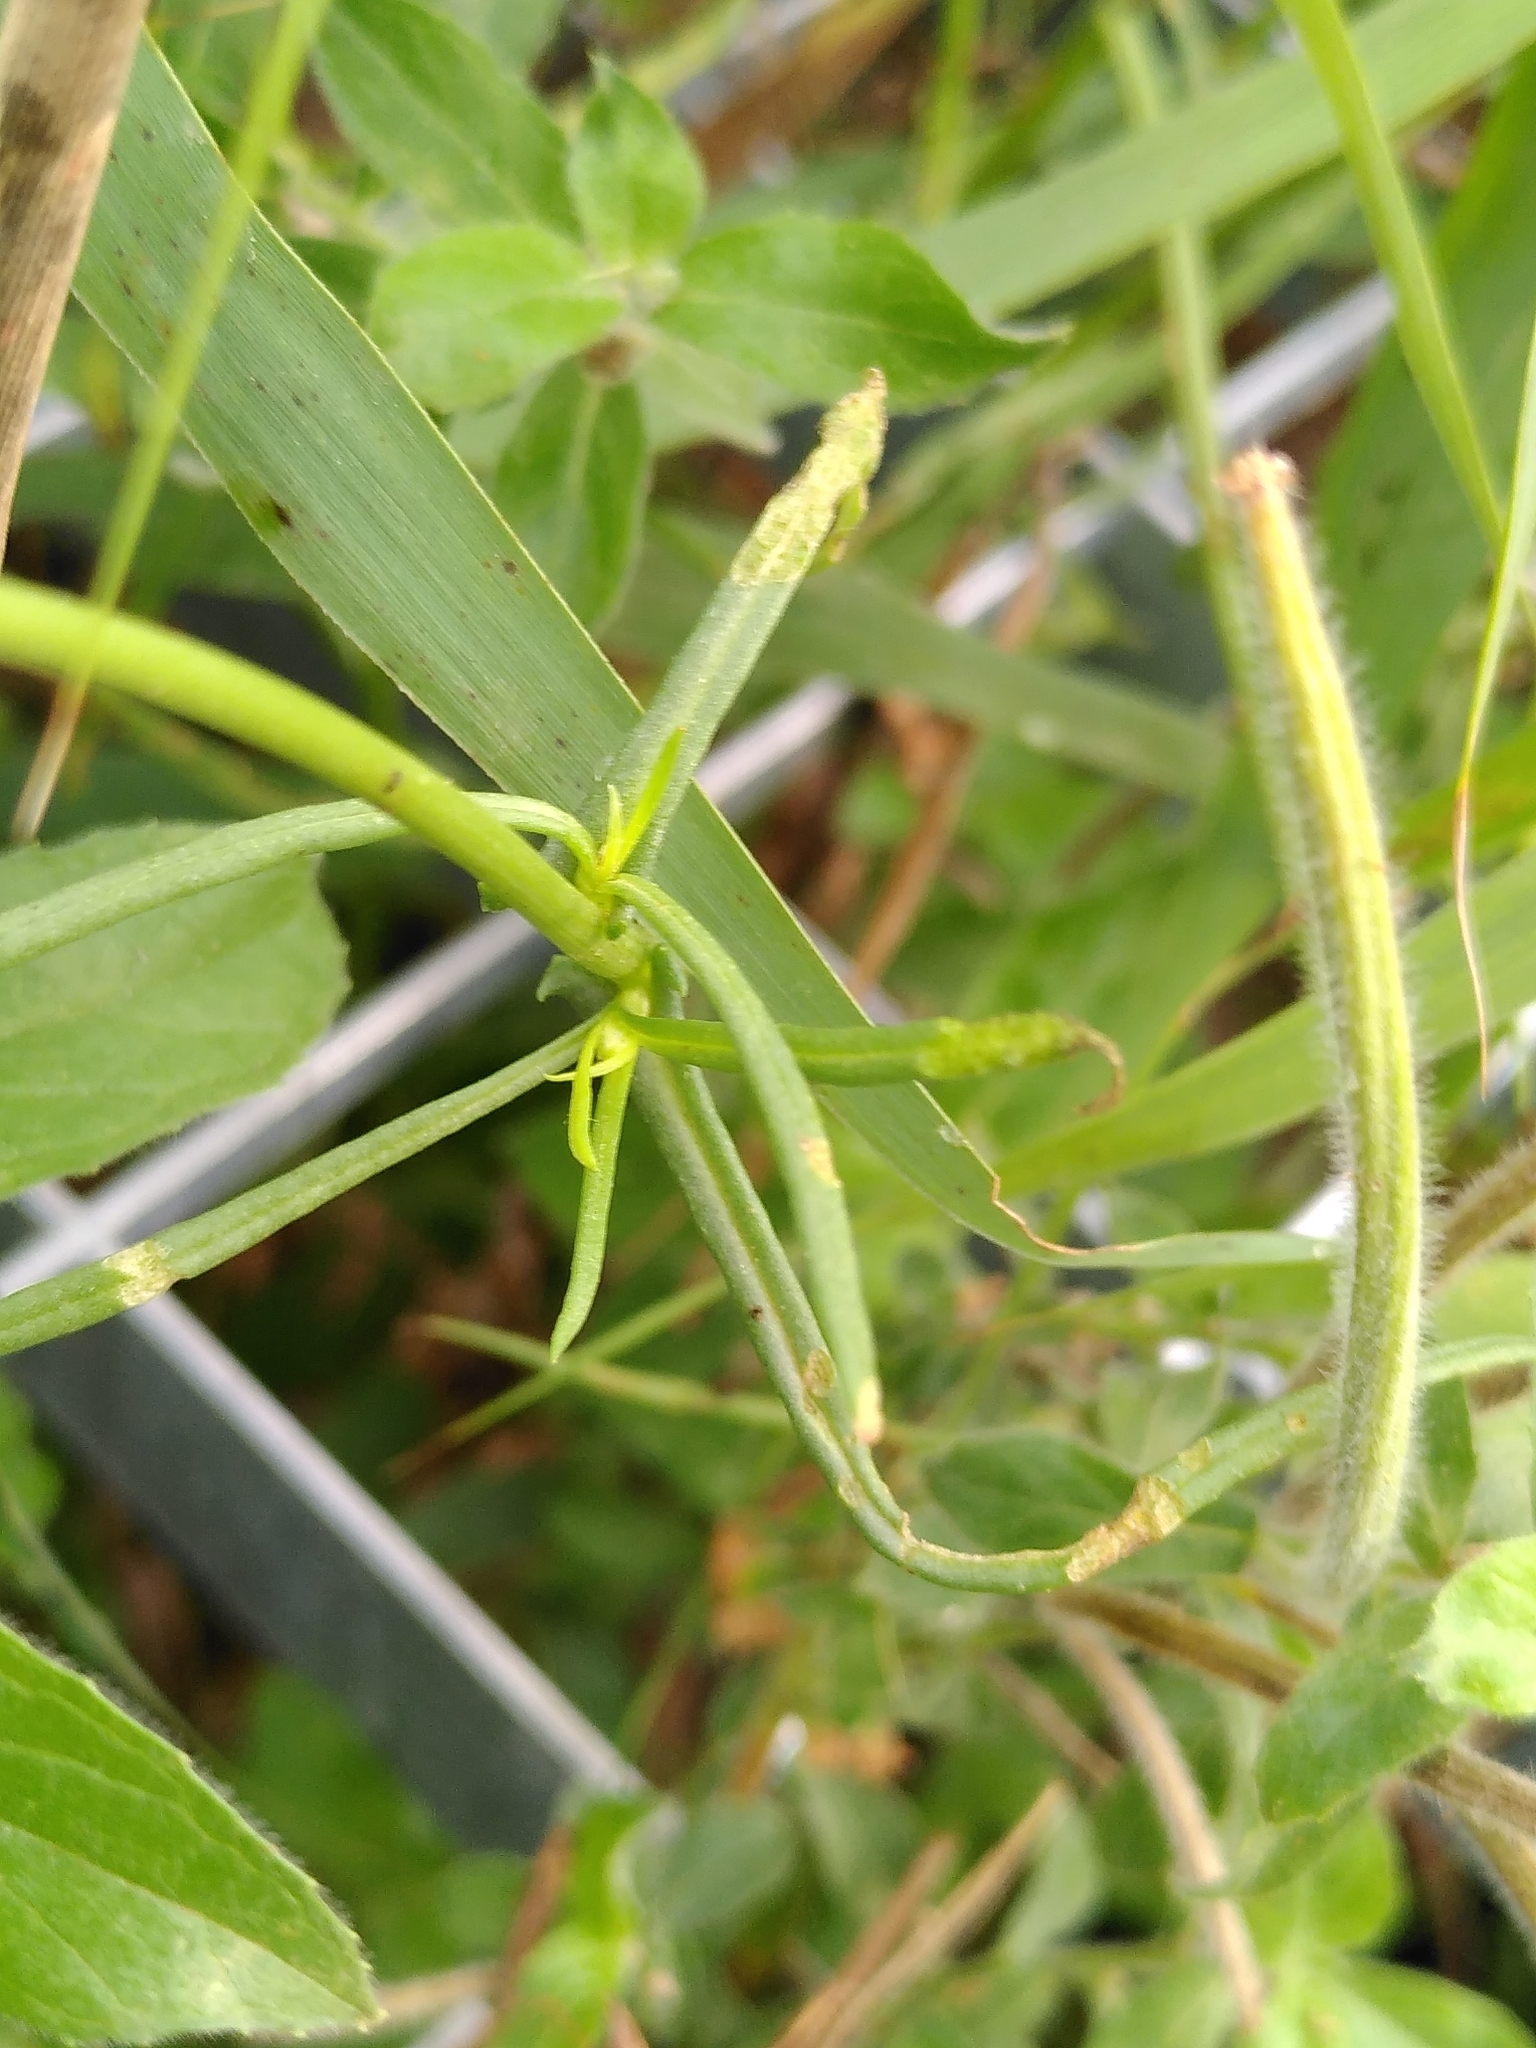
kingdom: Plantae
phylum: Tracheophyta
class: Magnoliopsida
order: Asterales
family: Asteraceae
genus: Senecio
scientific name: Senecio inaequidens
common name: Narrow-leaved ragwort
